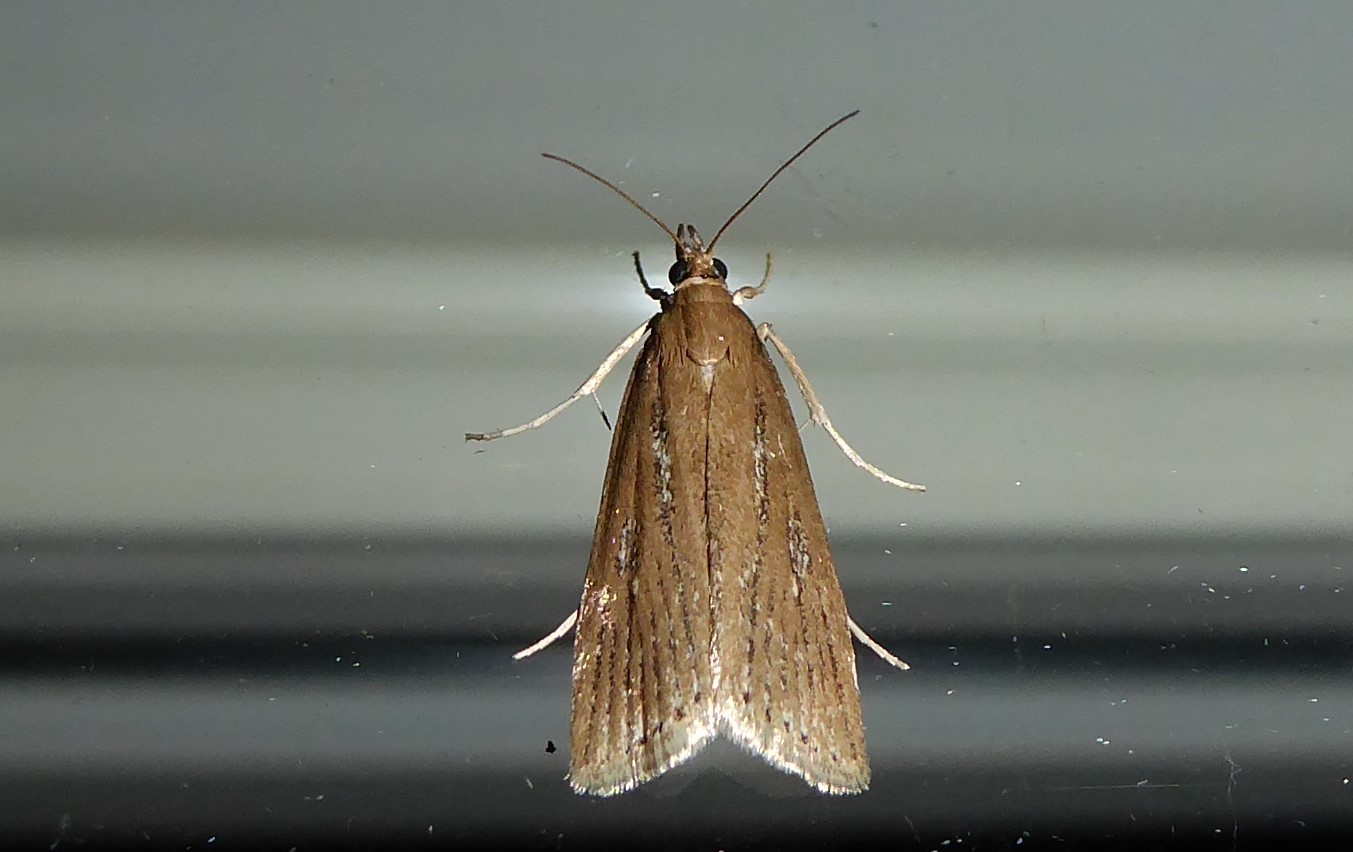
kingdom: Animalia
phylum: Arthropoda
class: Insecta
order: Lepidoptera
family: Crambidae
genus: Eudonia
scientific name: Eudonia octophora
